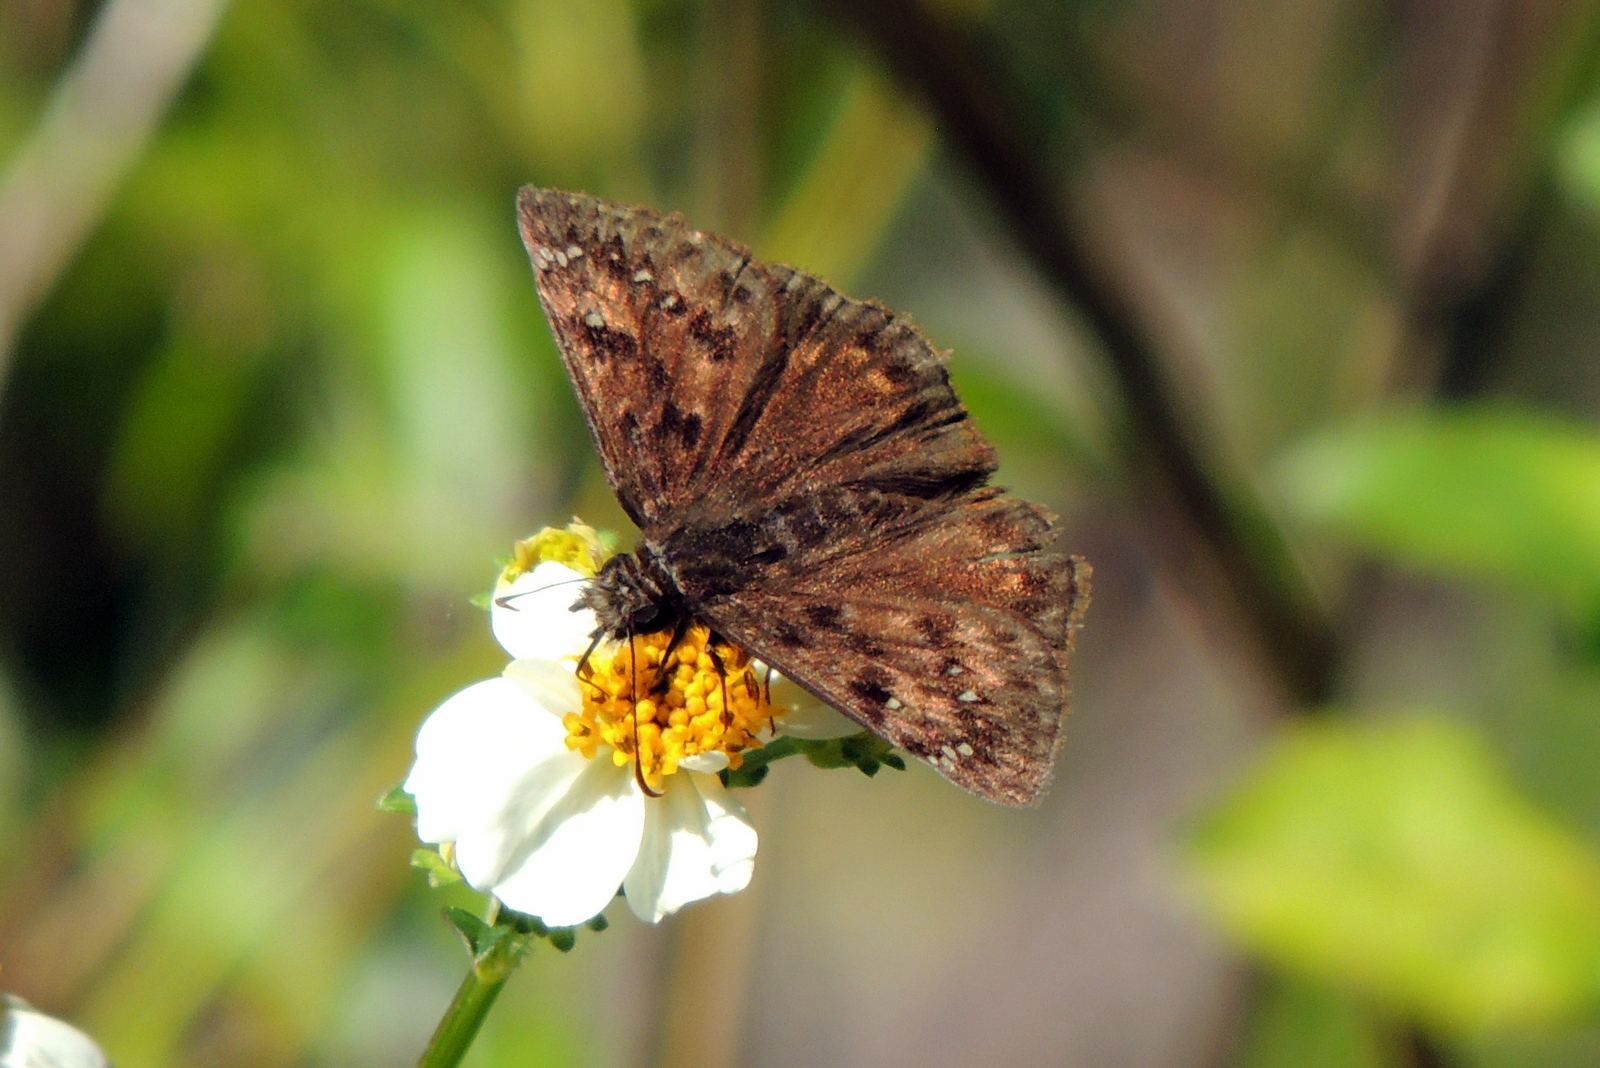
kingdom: Plantae
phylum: Tracheophyta
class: Magnoliopsida
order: Asterales
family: Asteraceae
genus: Bidens
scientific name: Bidens alba
